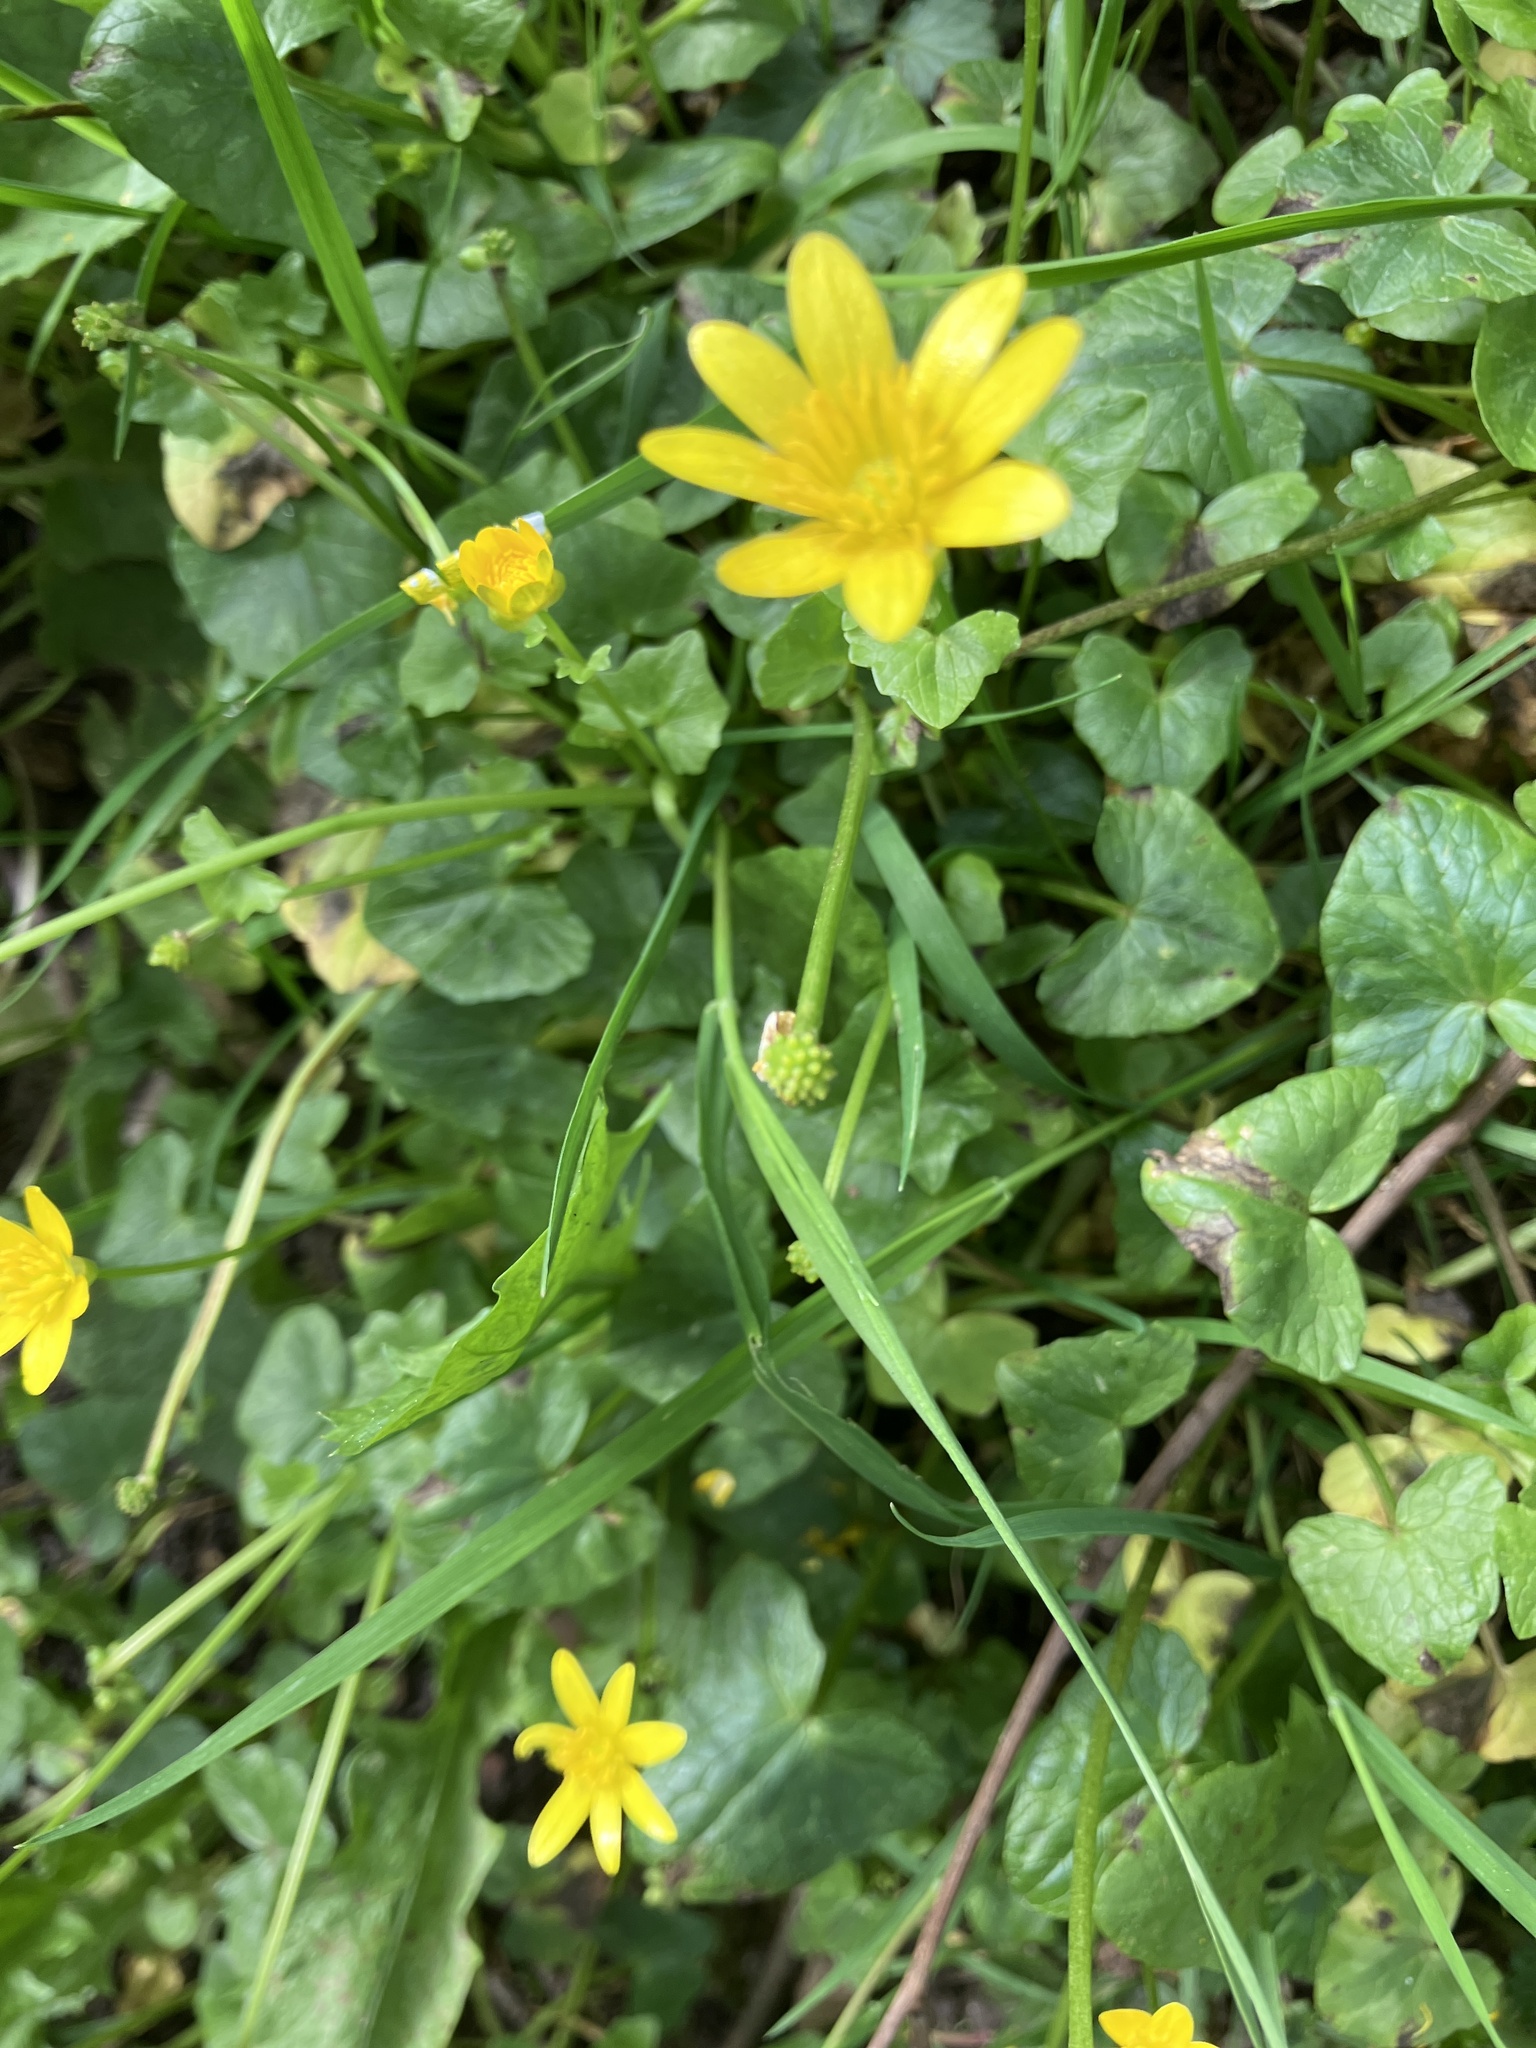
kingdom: Plantae
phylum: Tracheophyta
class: Magnoliopsida
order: Ranunculales
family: Ranunculaceae
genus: Ficaria
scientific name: Ficaria verna
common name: Lesser celandine
